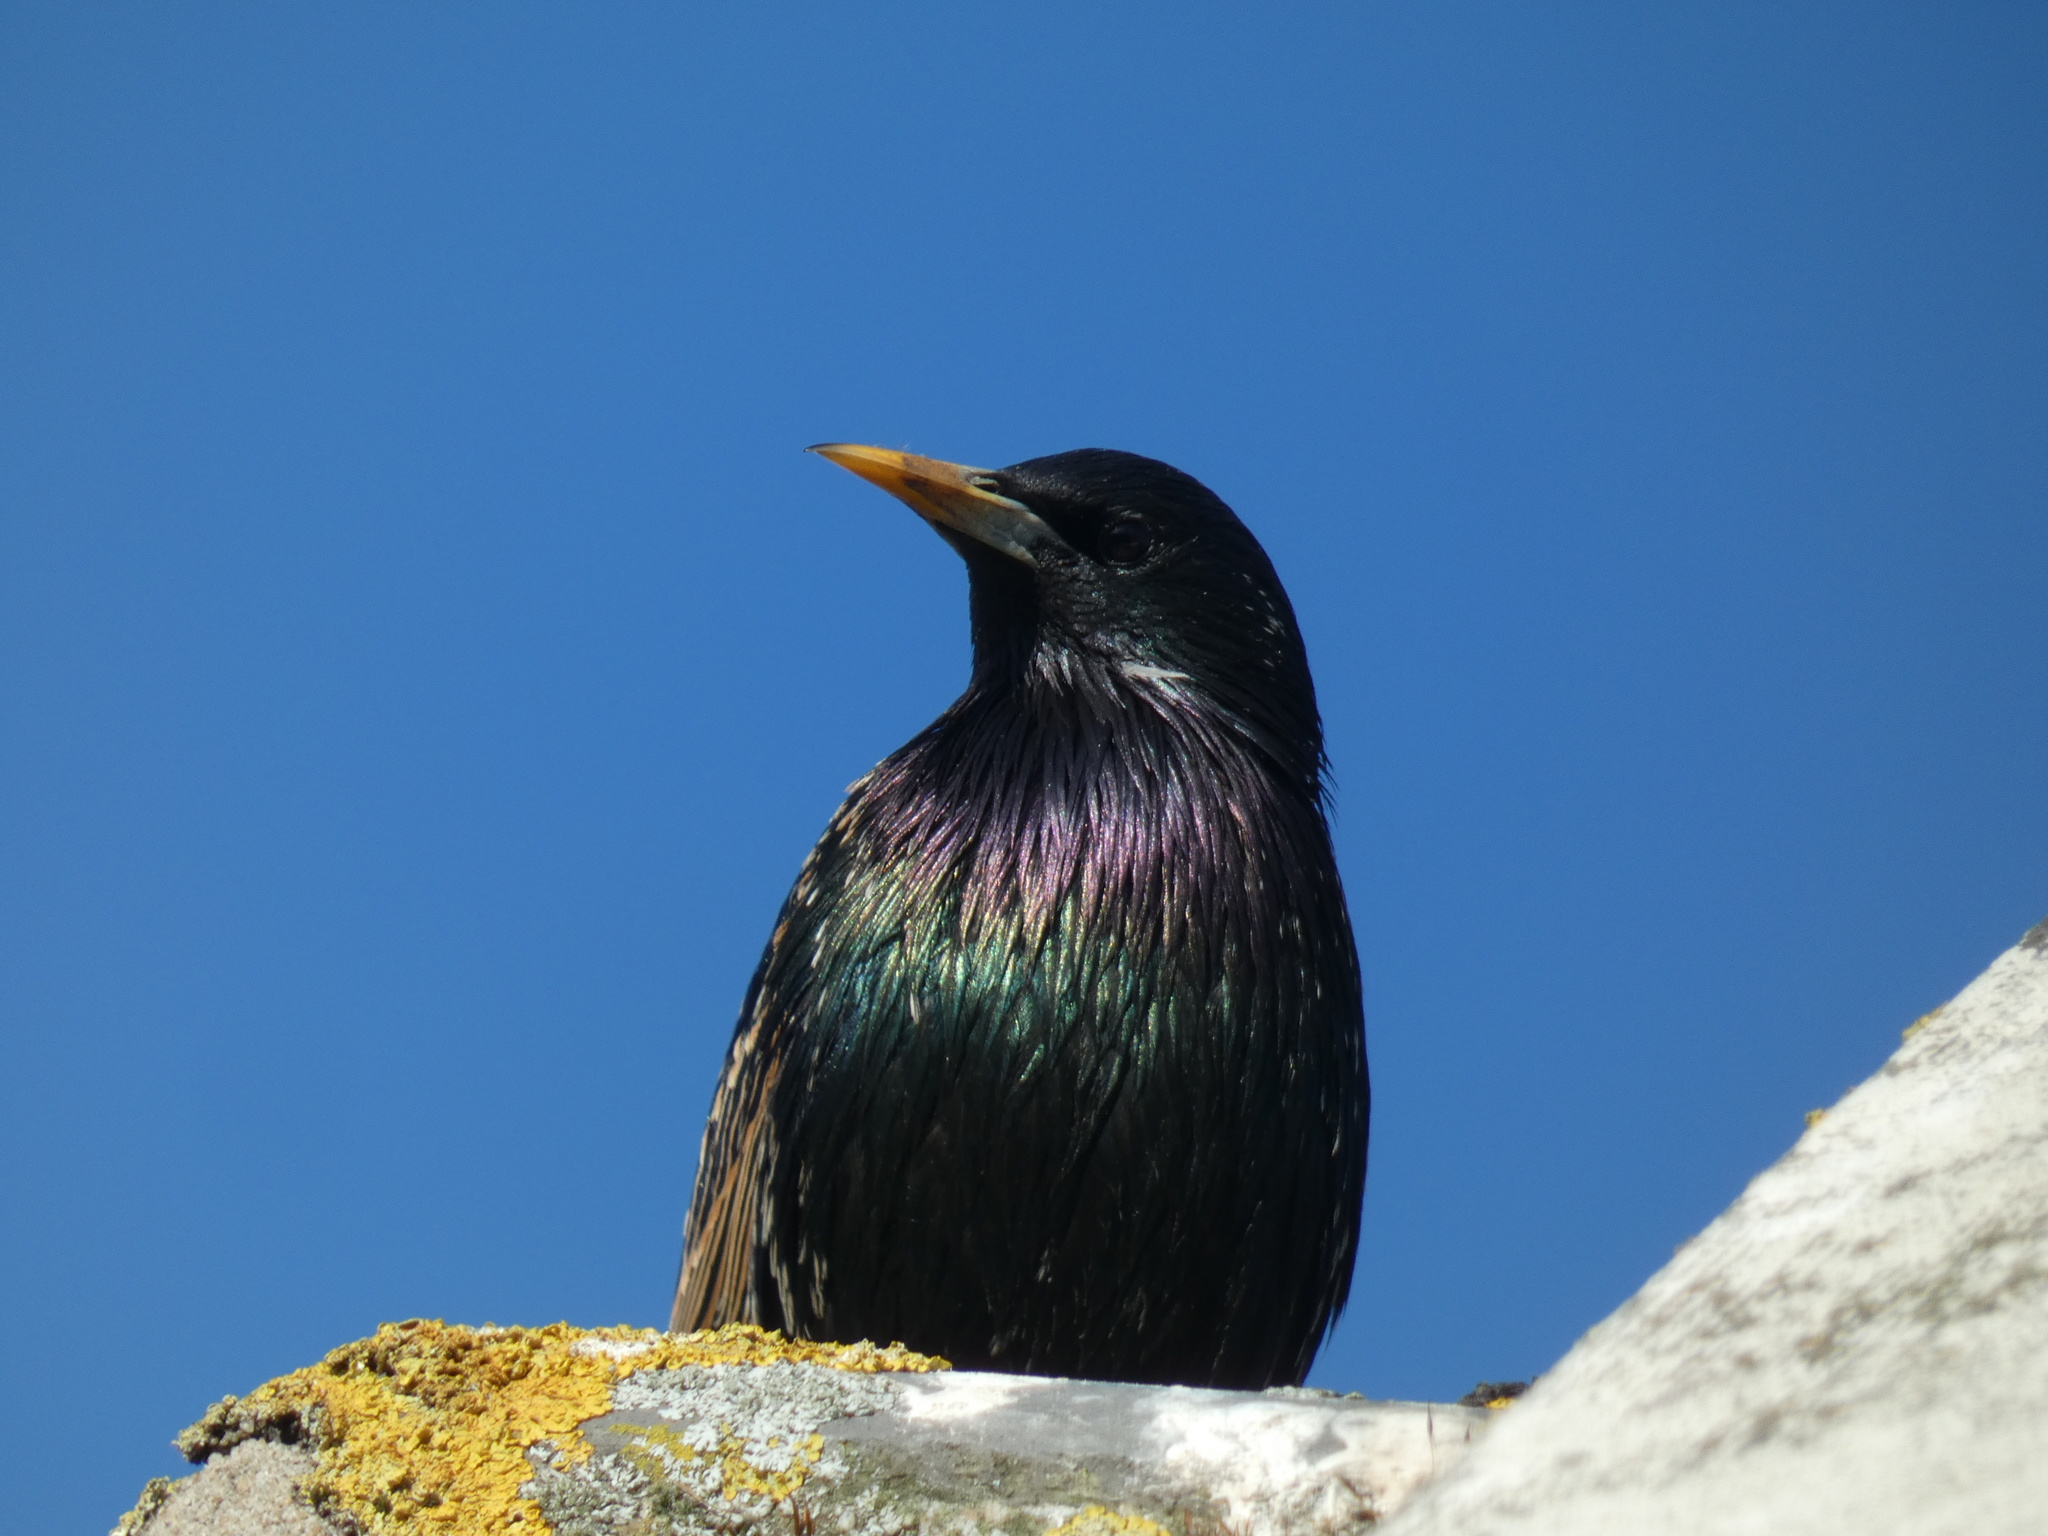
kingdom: Animalia
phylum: Chordata
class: Aves
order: Passeriformes
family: Sturnidae
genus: Sturnus
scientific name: Sturnus vulgaris
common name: Common starling
